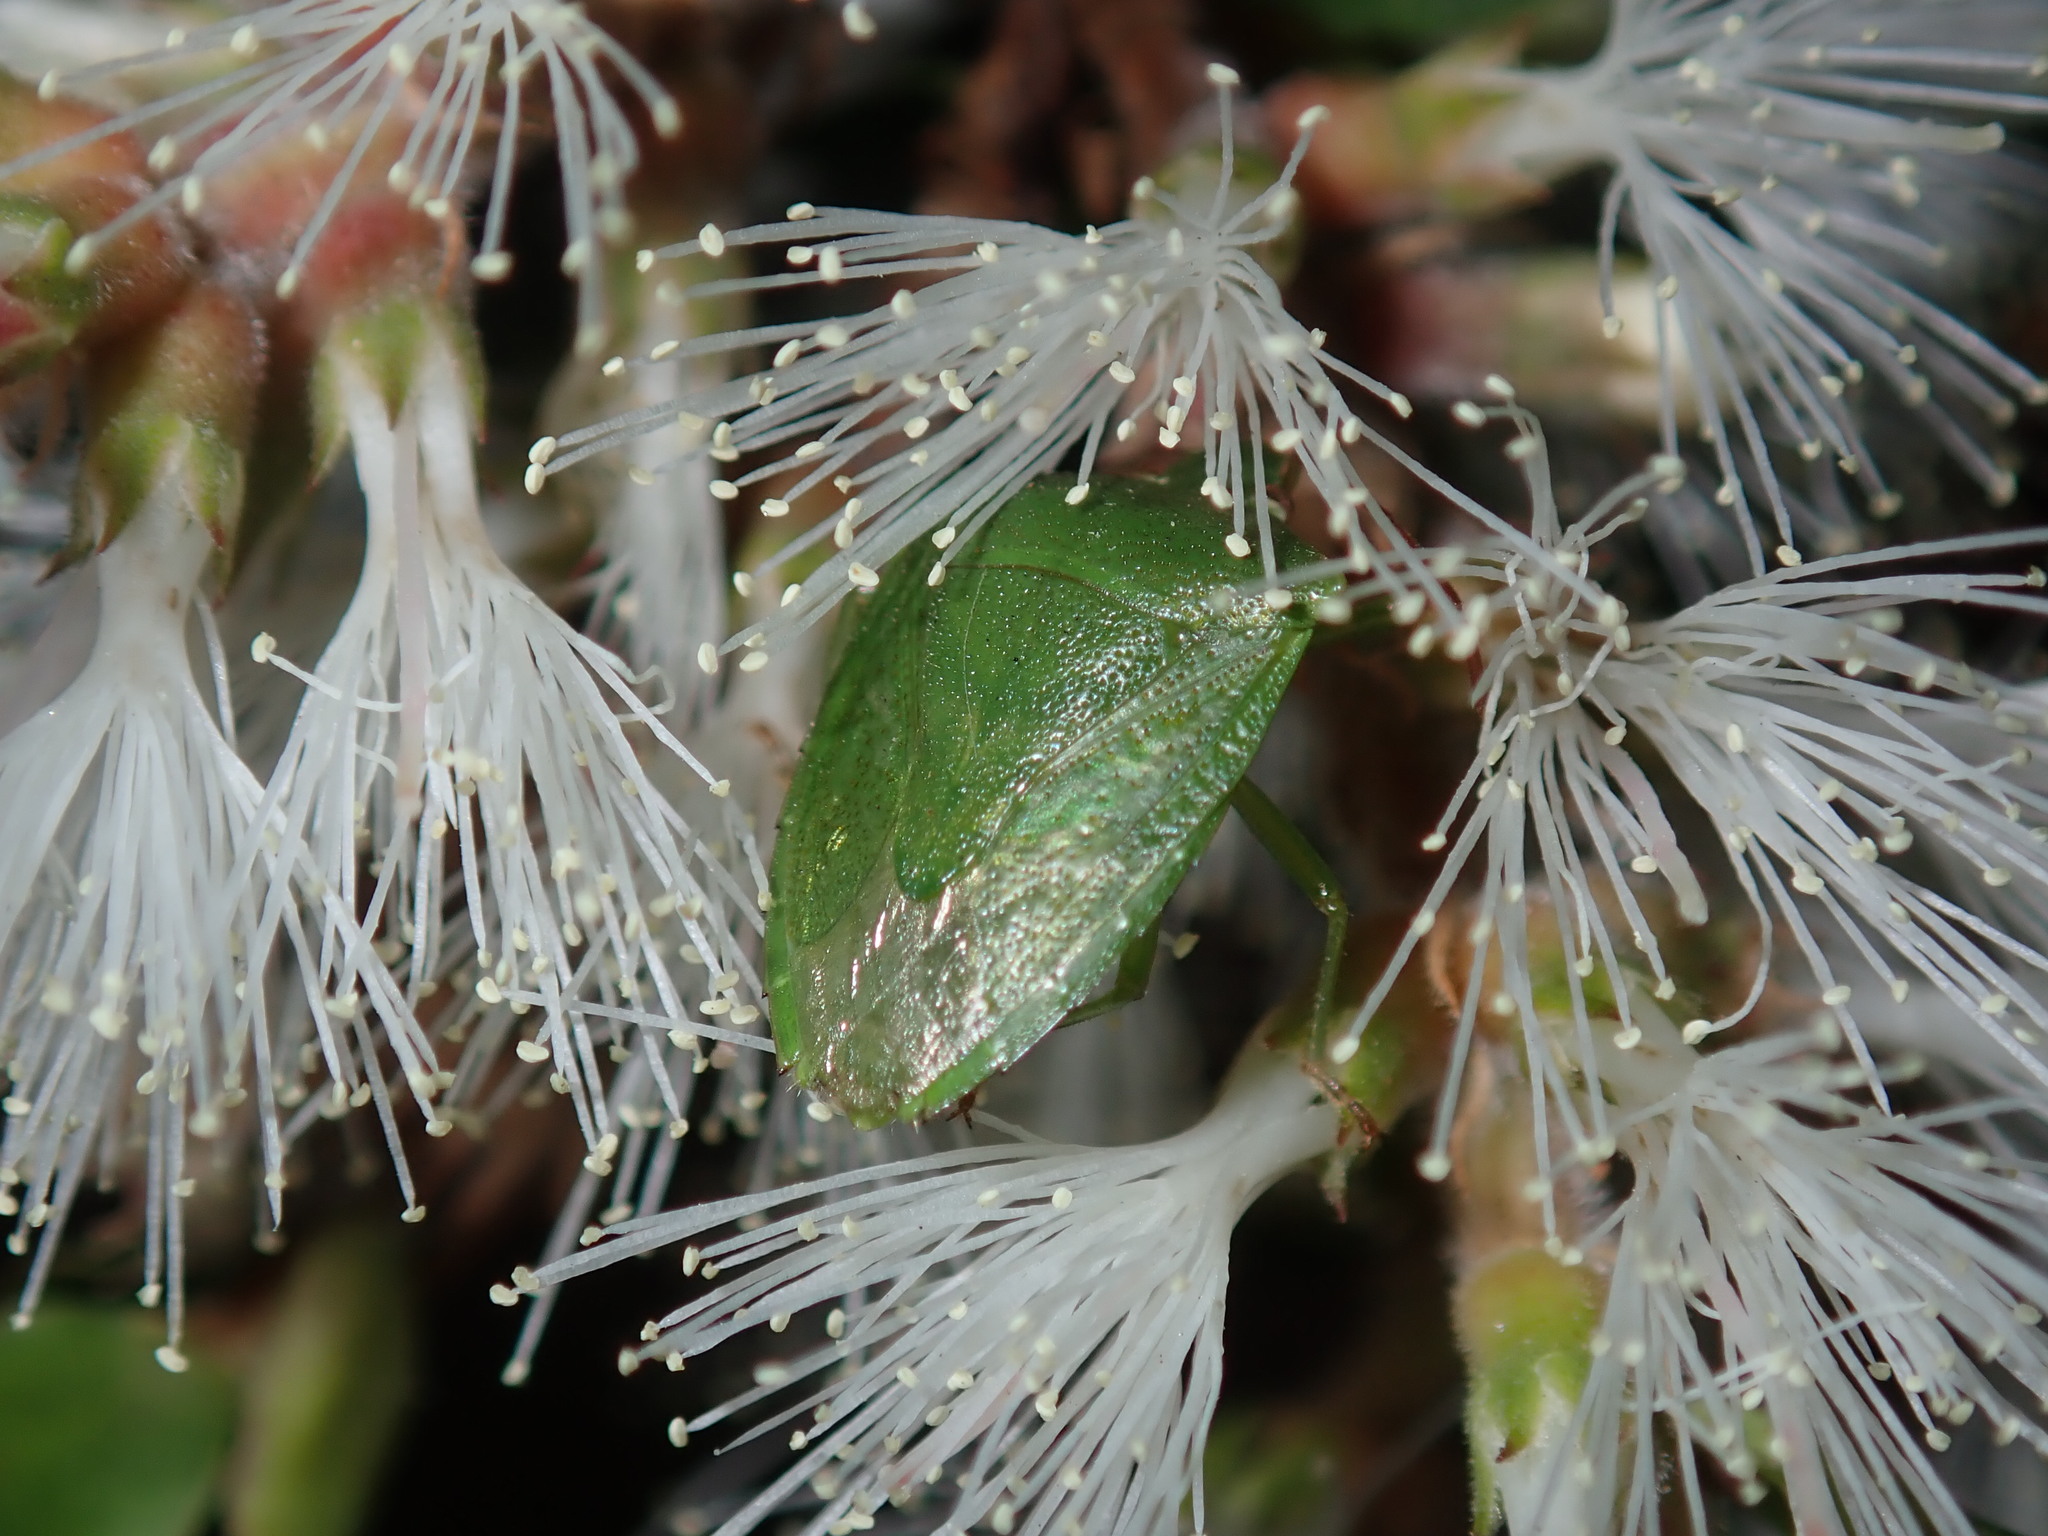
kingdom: Animalia
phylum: Arthropoda
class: Insecta
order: Hemiptera
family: Pentatomidae
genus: Cuspicona
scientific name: Cuspicona simplex
